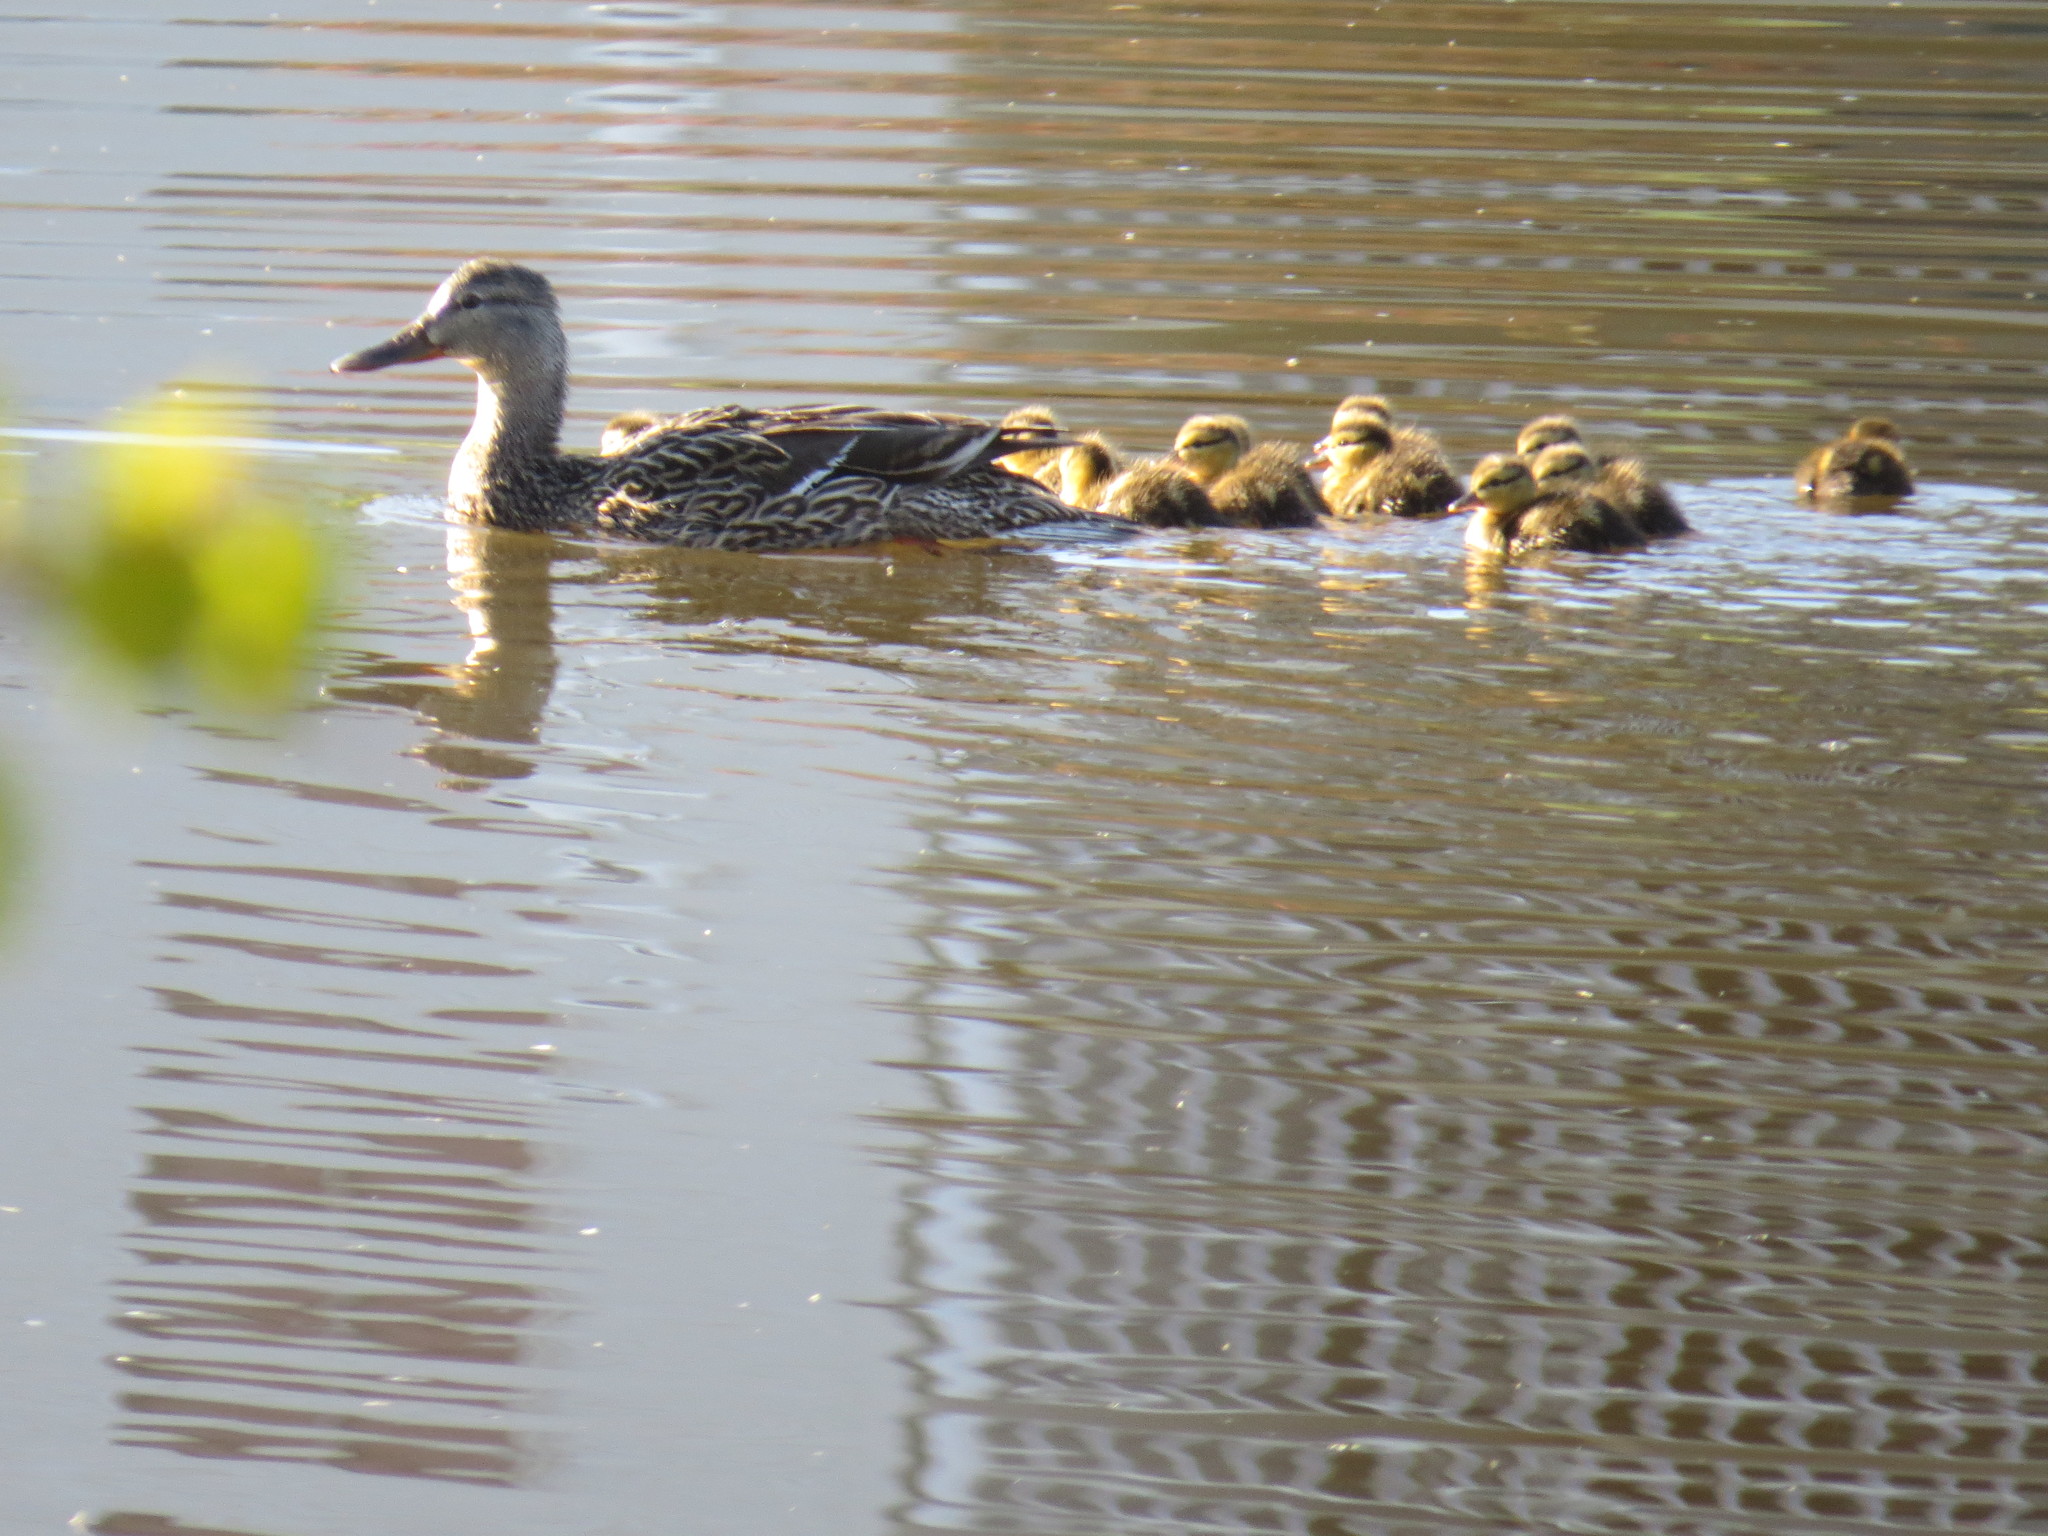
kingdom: Animalia
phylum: Chordata
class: Aves
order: Anseriformes
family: Anatidae
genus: Anas
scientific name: Anas platyrhynchos
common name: Mallard
